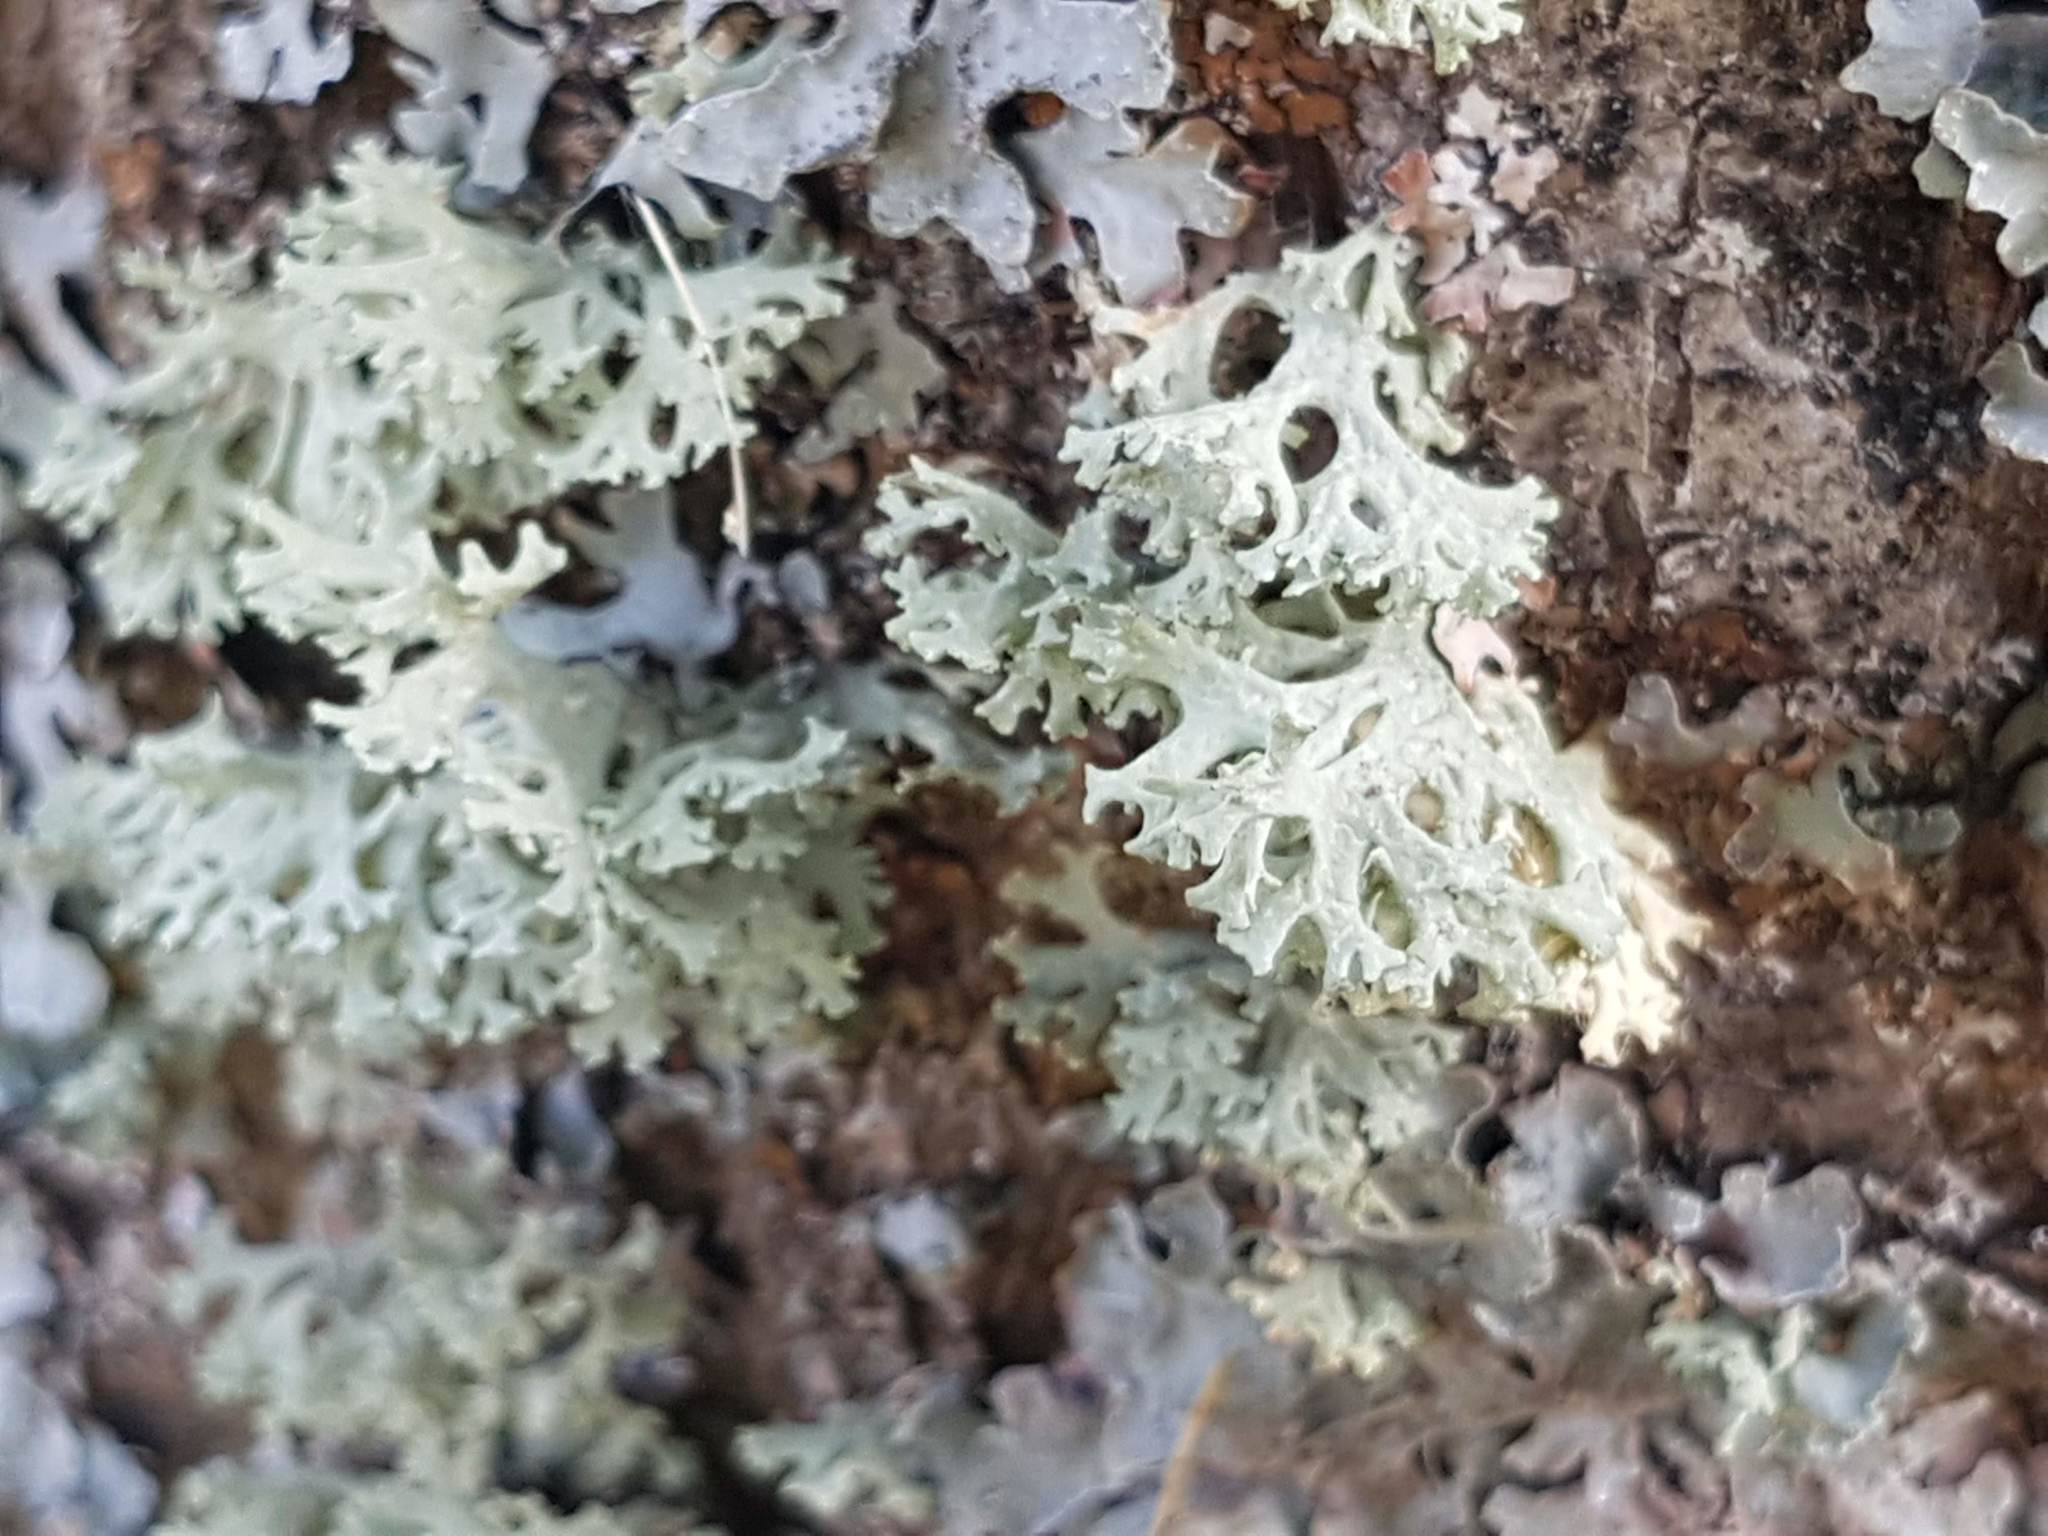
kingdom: Fungi
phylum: Ascomycota
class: Lecanoromycetes
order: Lecanorales
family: Parmeliaceae
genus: Evernia
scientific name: Evernia prunastri
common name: Oak moss
